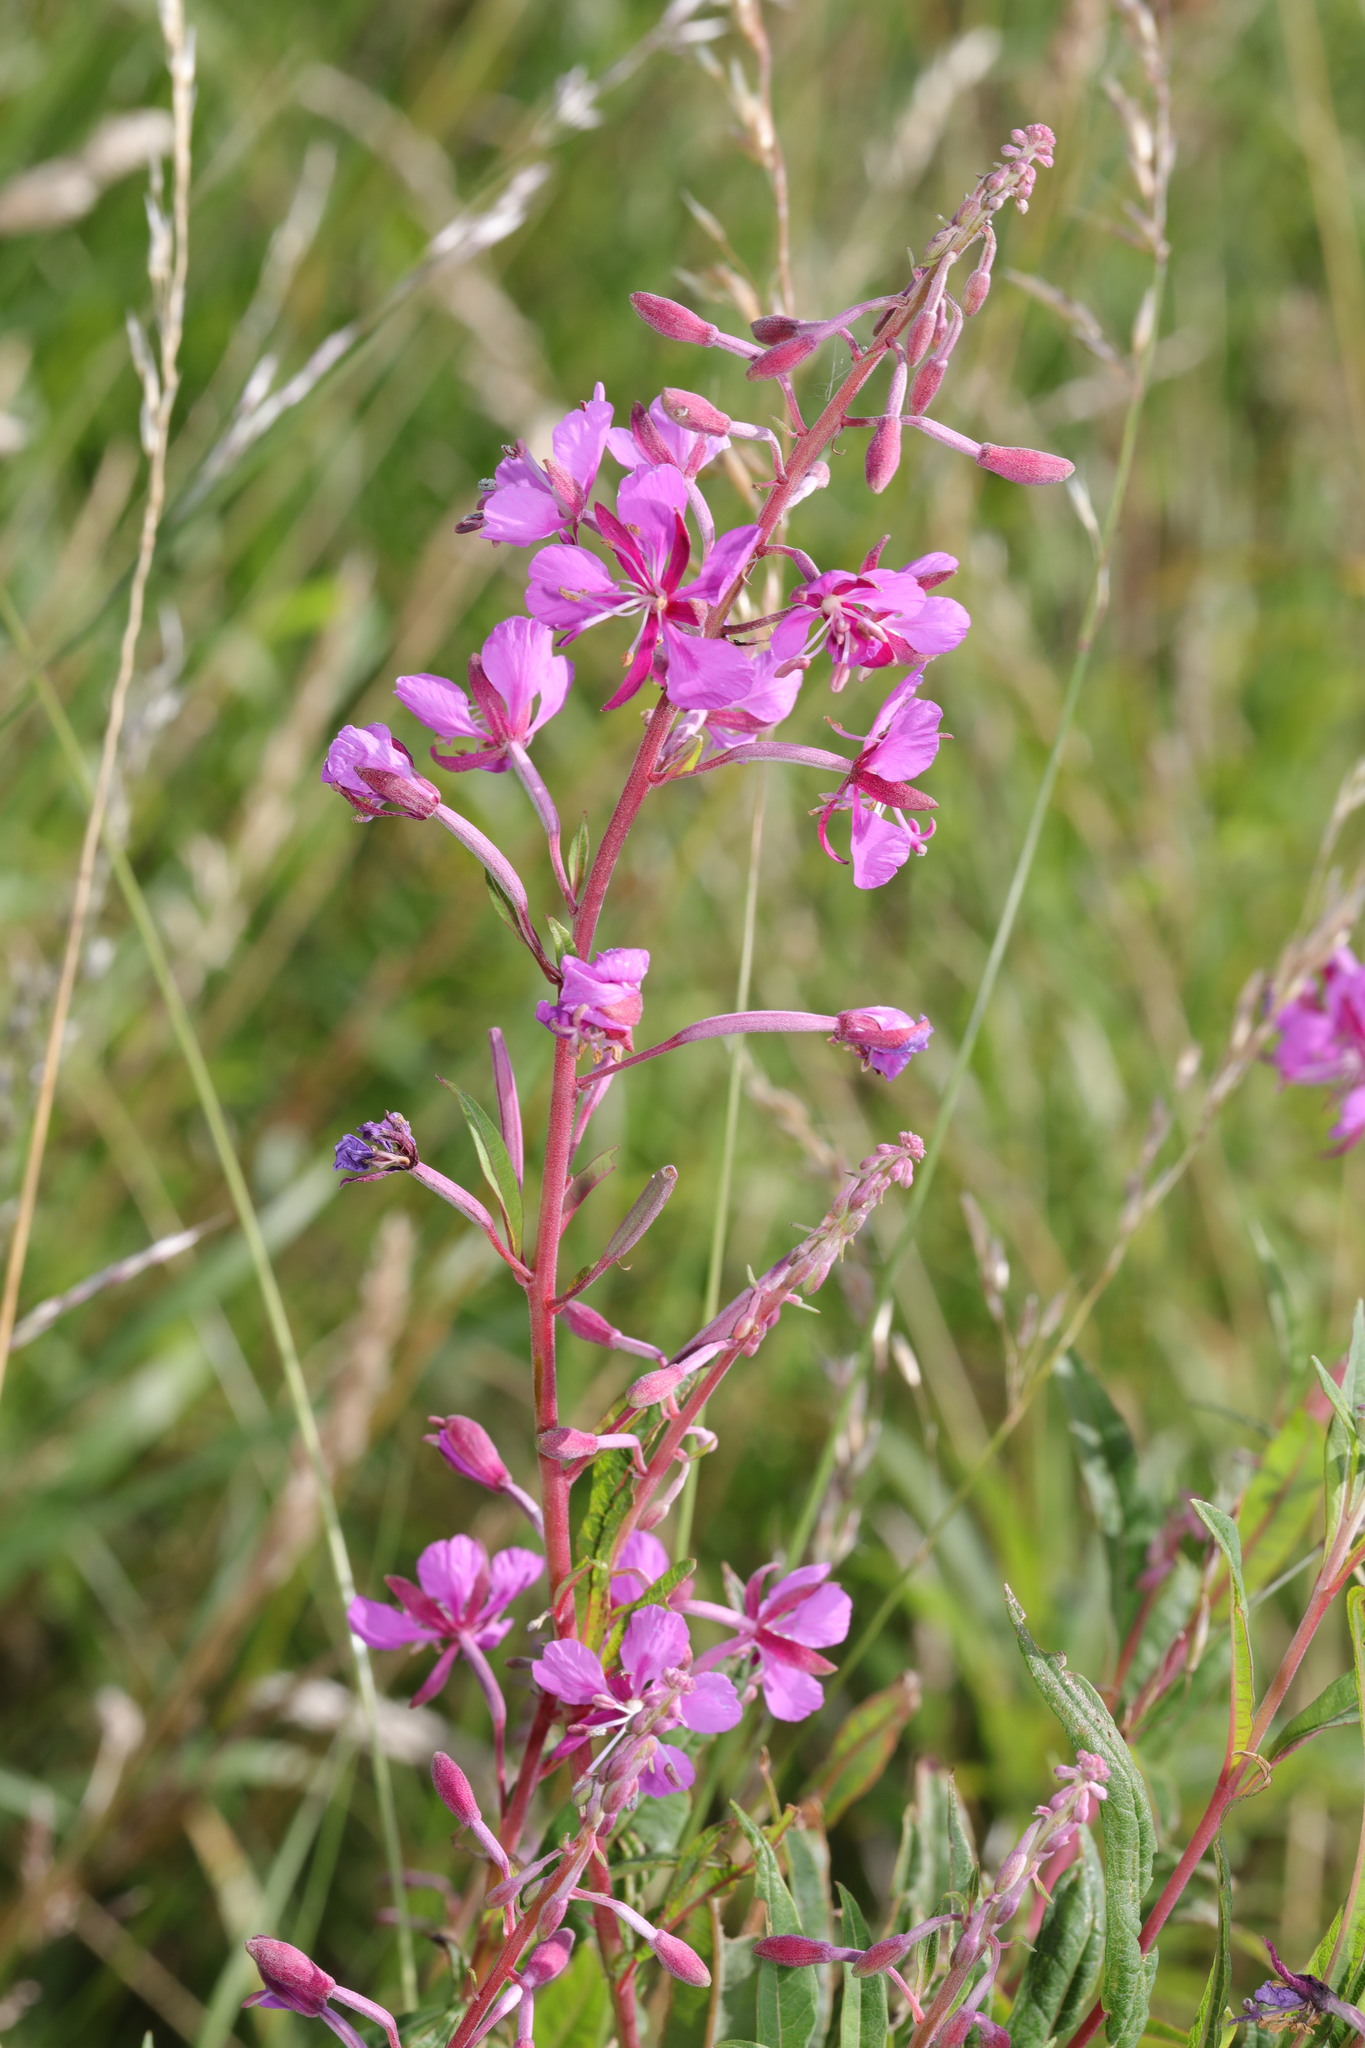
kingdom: Plantae
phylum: Tracheophyta
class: Magnoliopsida
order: Myrtales
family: Onagraceae
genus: Chamaenerion
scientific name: Chamaenerion angustifolium
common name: Fireweed
